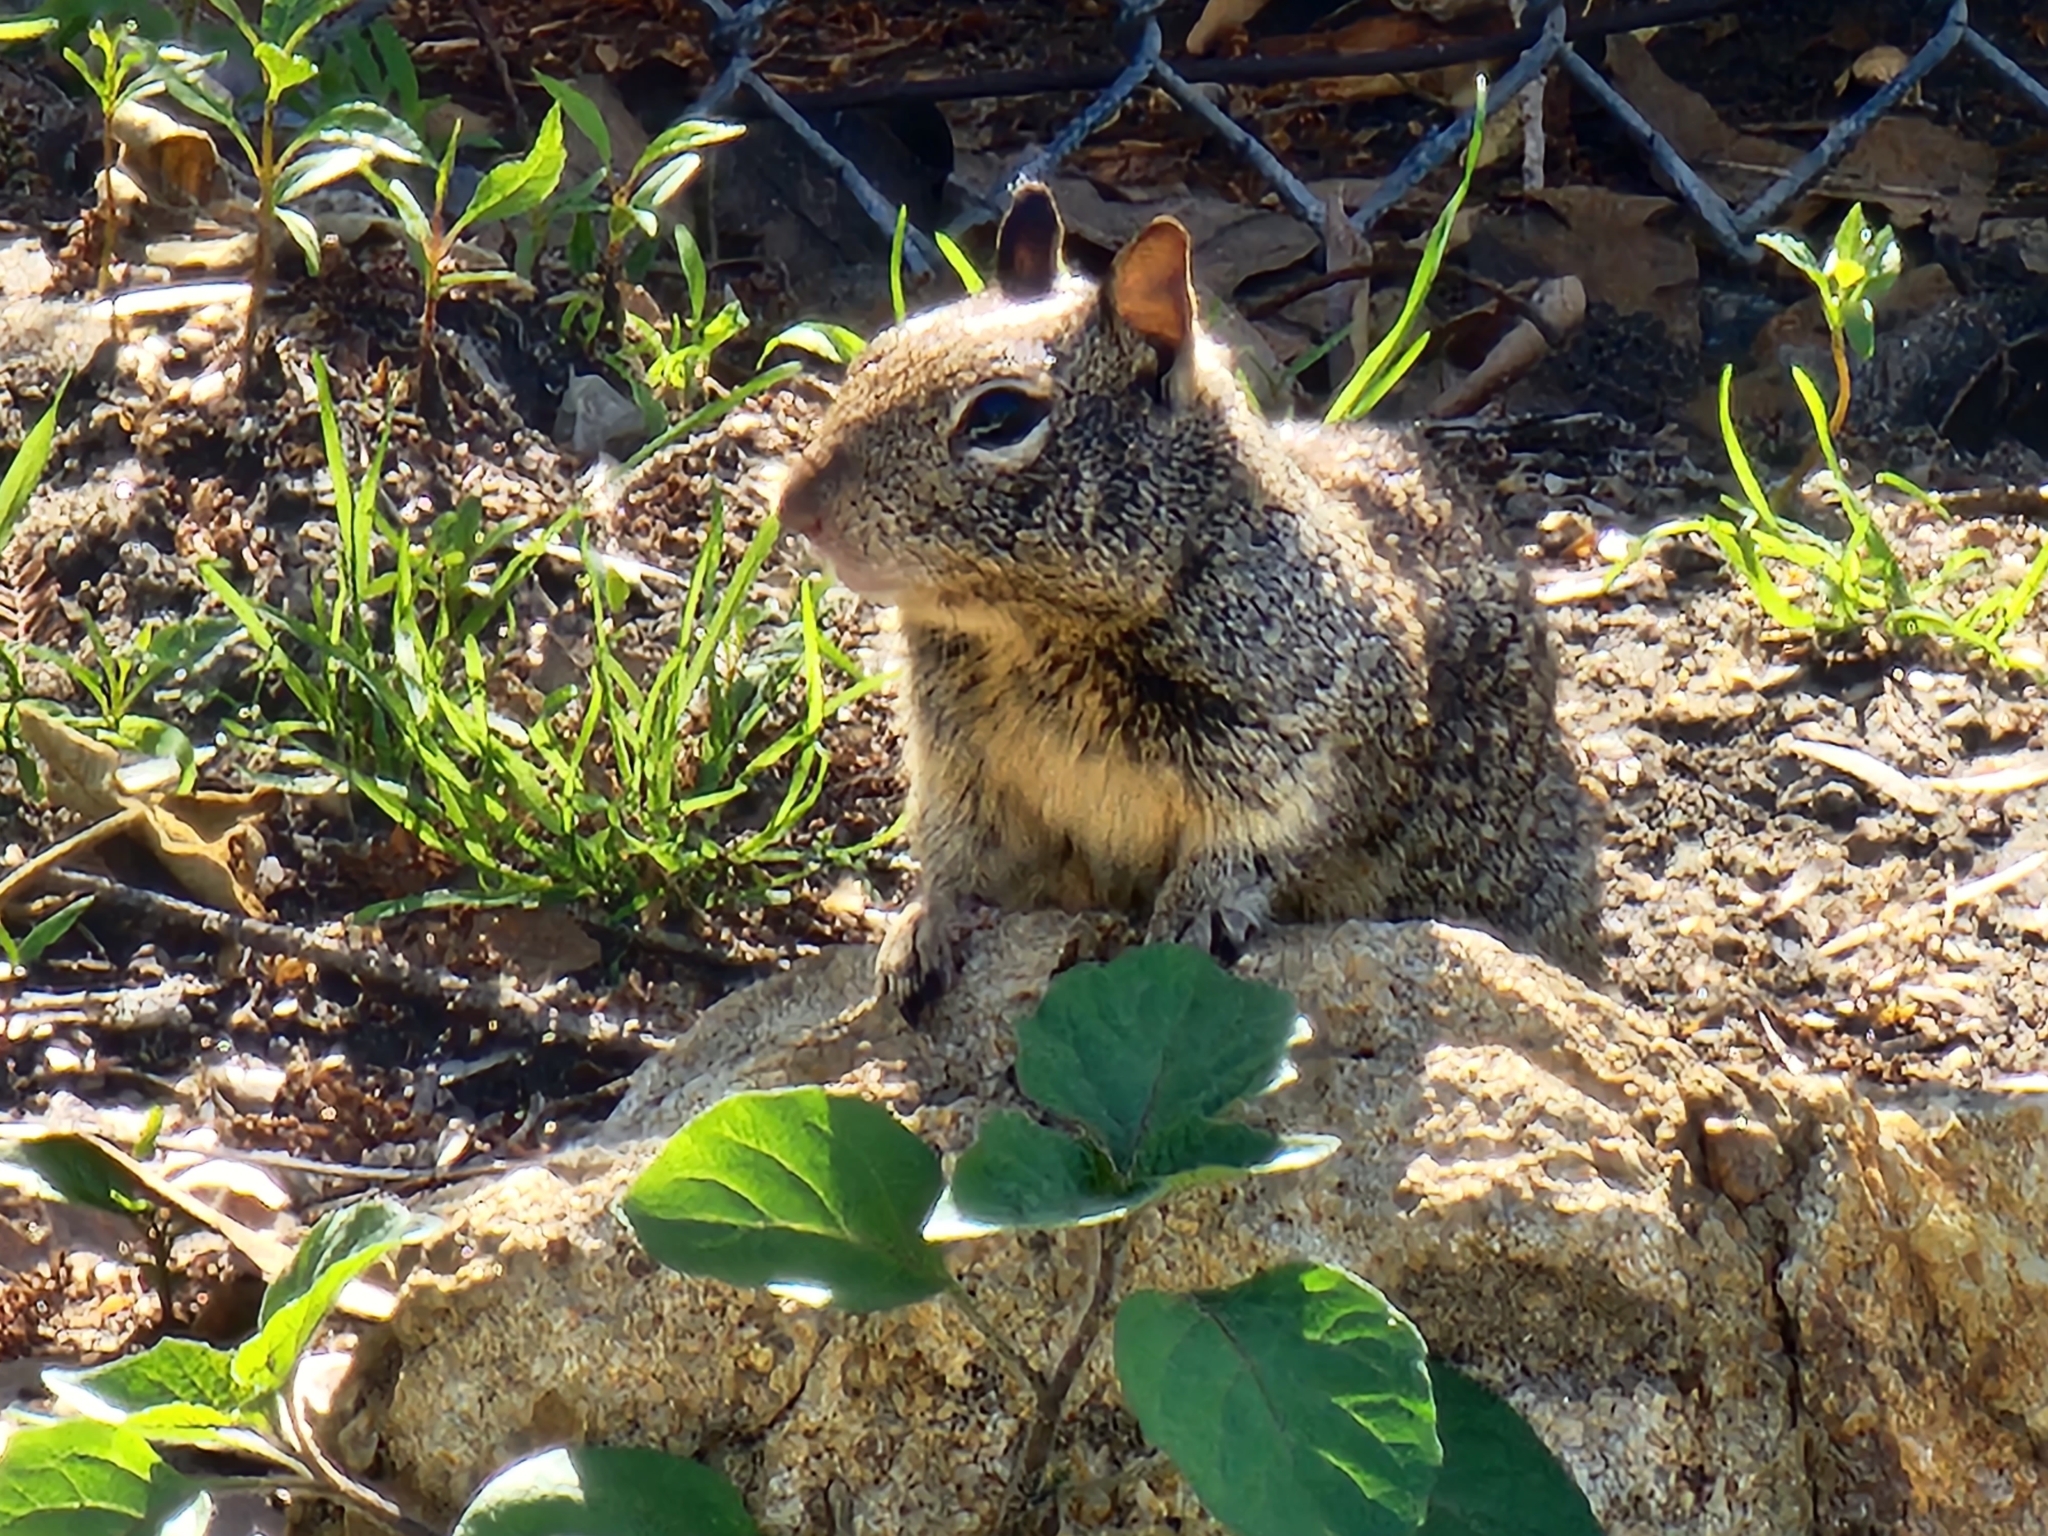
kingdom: Animalia
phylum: Chordata
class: Mammalia
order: Rodentia
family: Sciuridae
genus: Otospermophilus
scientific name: Otospermophilus beecheyi
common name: California ground squirrel
